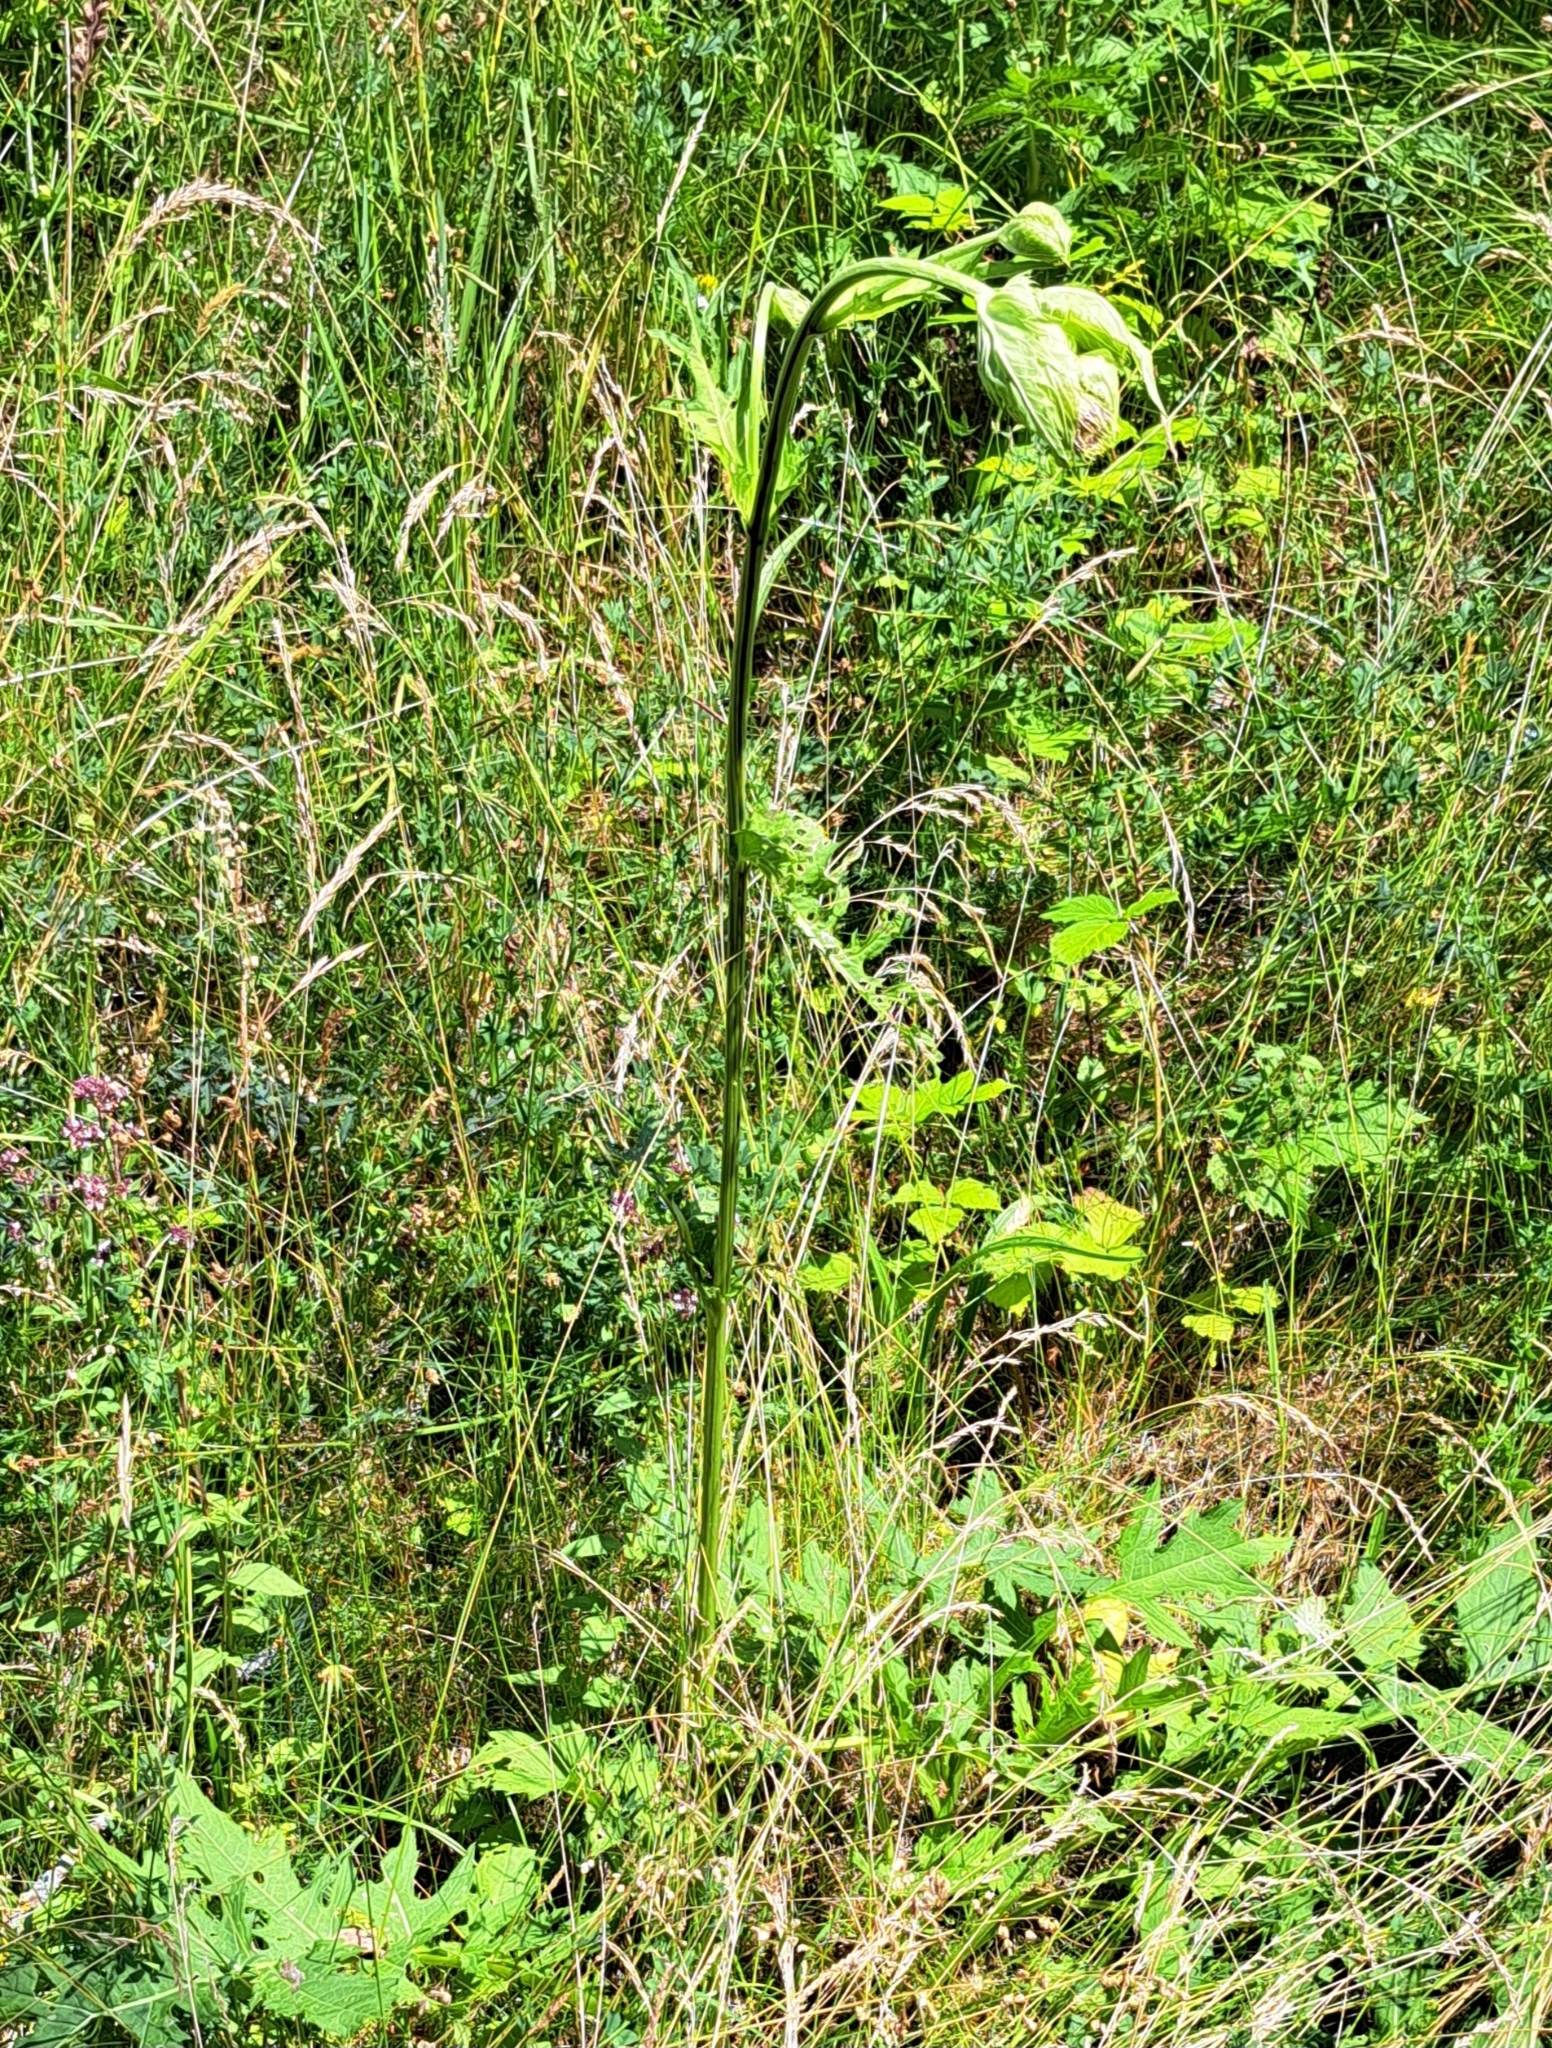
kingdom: Plantae
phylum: Tracheophyta
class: Magnoliopsida
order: Asterales
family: Asteraceae
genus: Cirsium
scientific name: Cirsium oleraceum
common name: Cabbage thistle
